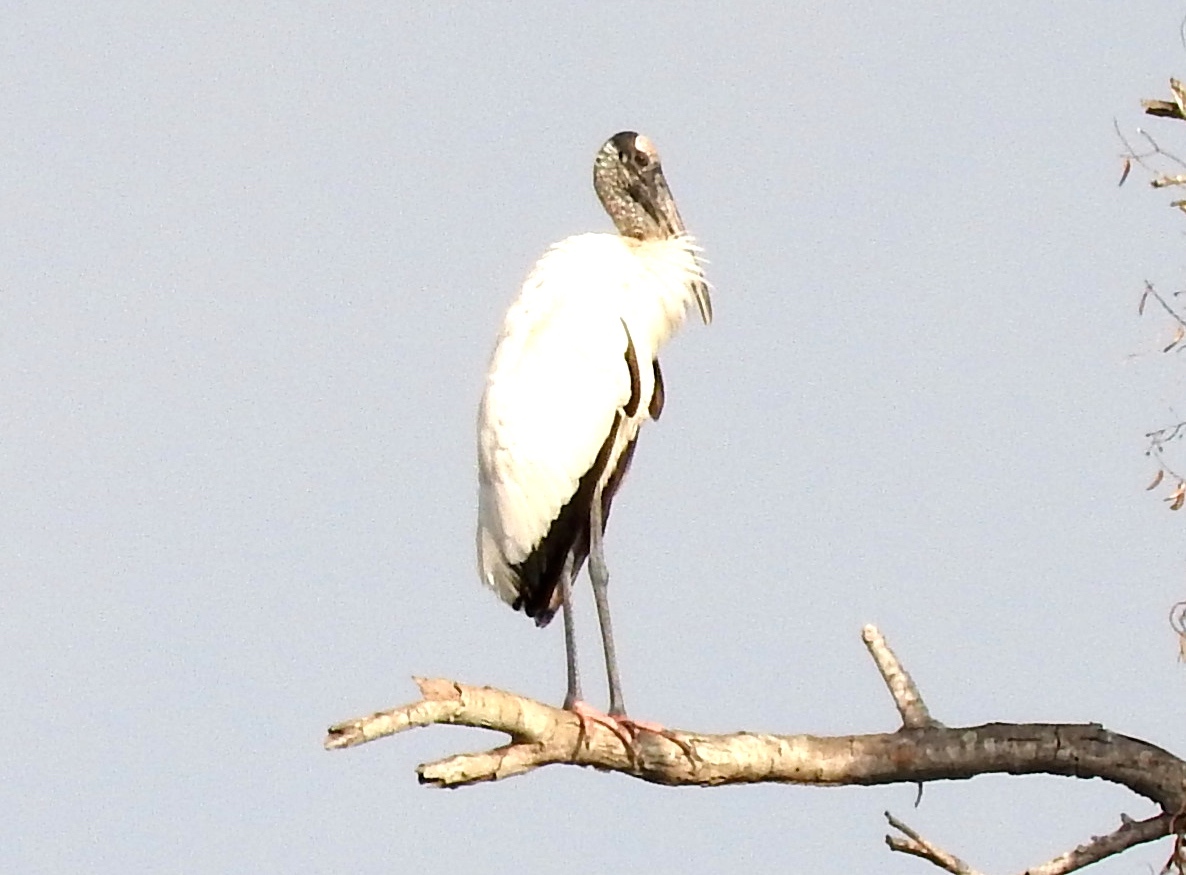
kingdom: Animalia
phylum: Chordata
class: Aves
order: Ciconiiformes
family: Ciconiidae
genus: Mycteria
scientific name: Mycteria americana
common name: Wood stork
